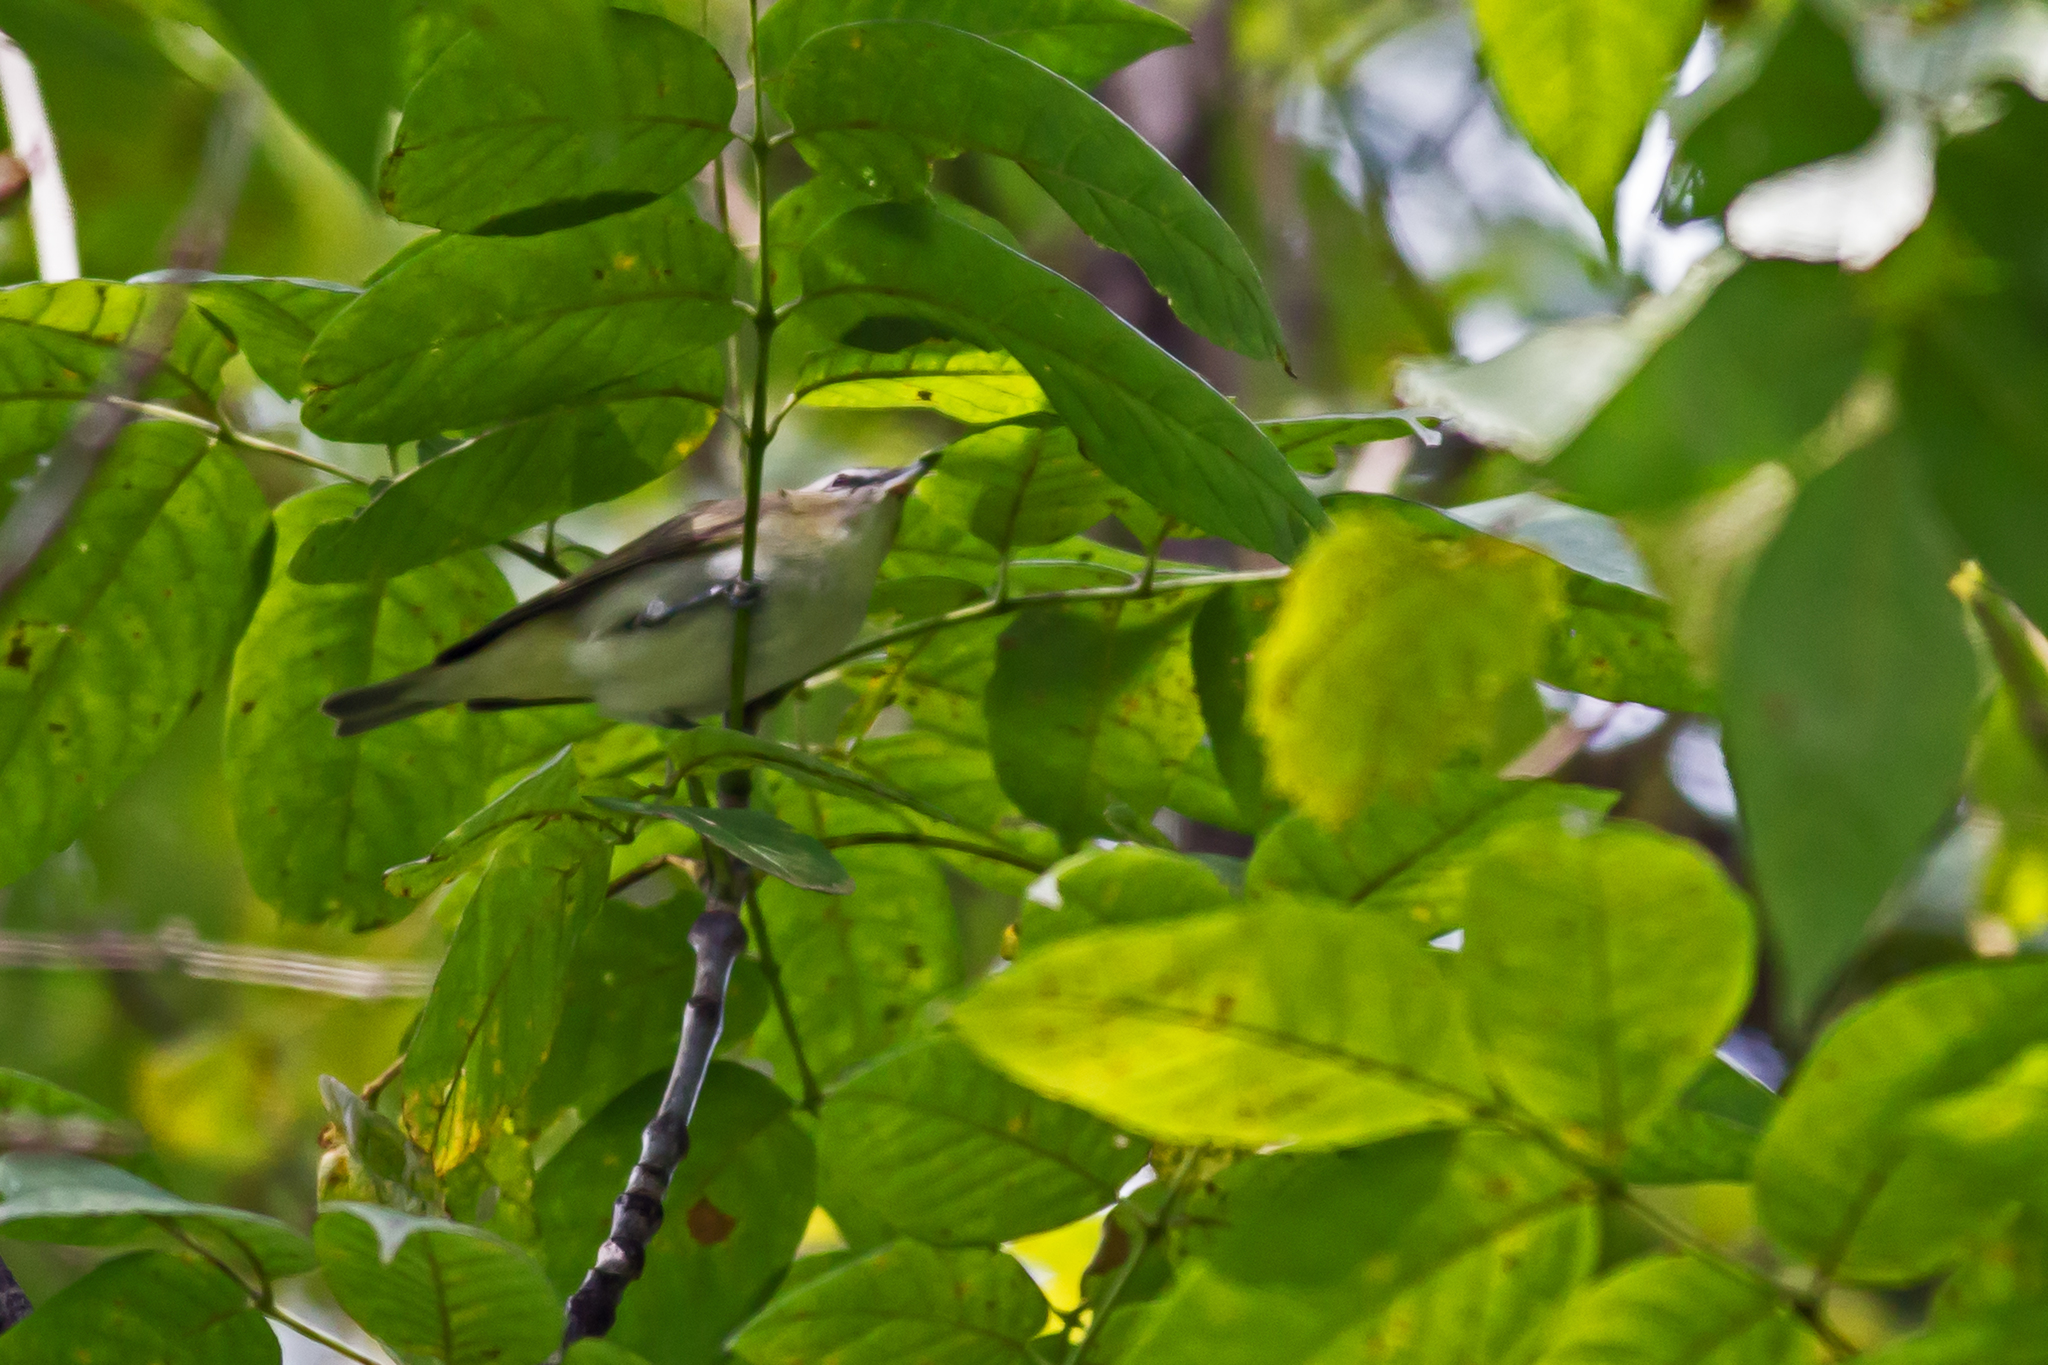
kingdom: Animalia
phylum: Chordata
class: Aves
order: Passeriformes
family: Vireonidae
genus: Vireo
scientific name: Vireo olivaceus
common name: Red-eyed vireo
